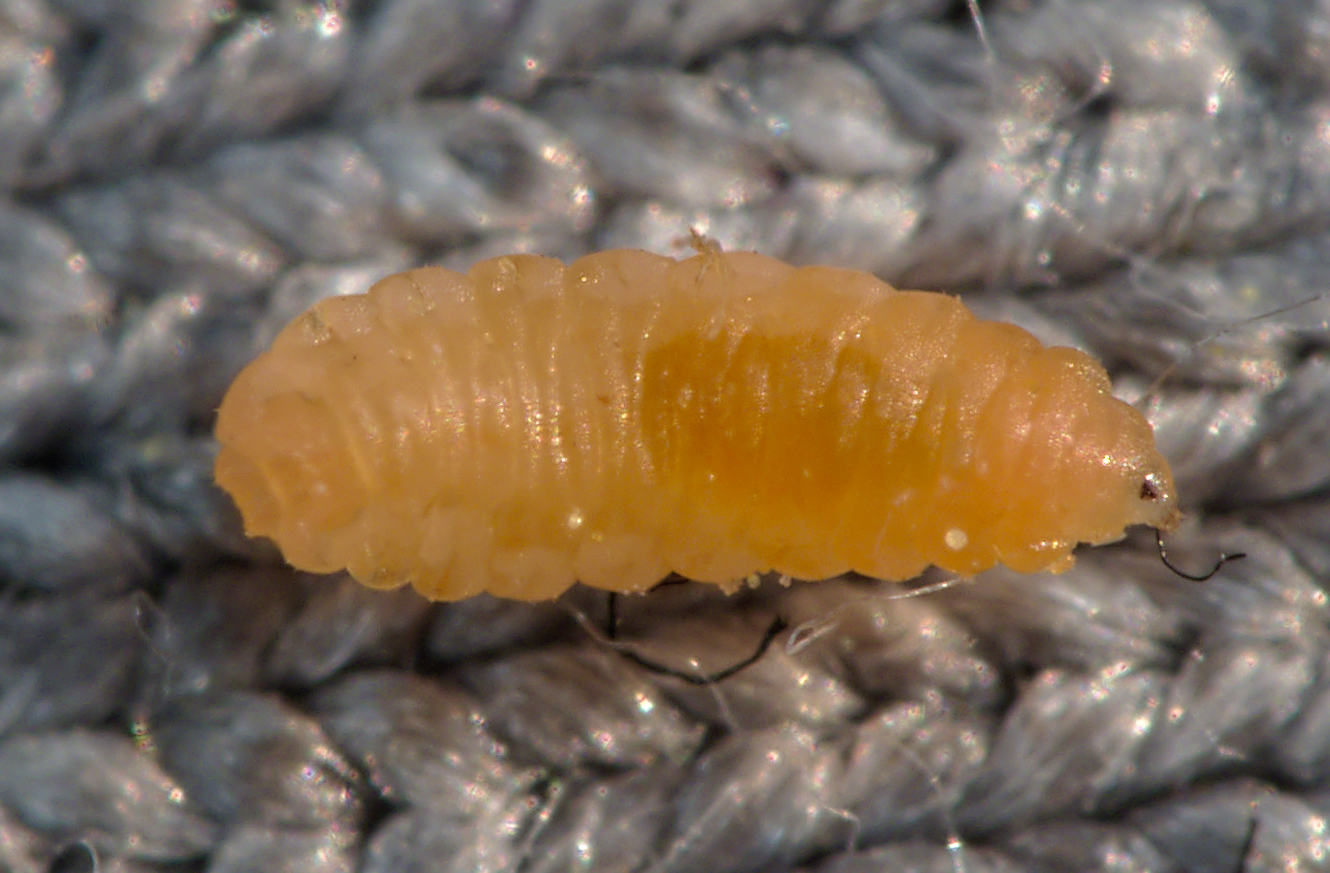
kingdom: Animalia
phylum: Arthropoda
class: Insecta
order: Diptera
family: Cecidomyiidae
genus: Dasineura
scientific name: Dasineura fusca
